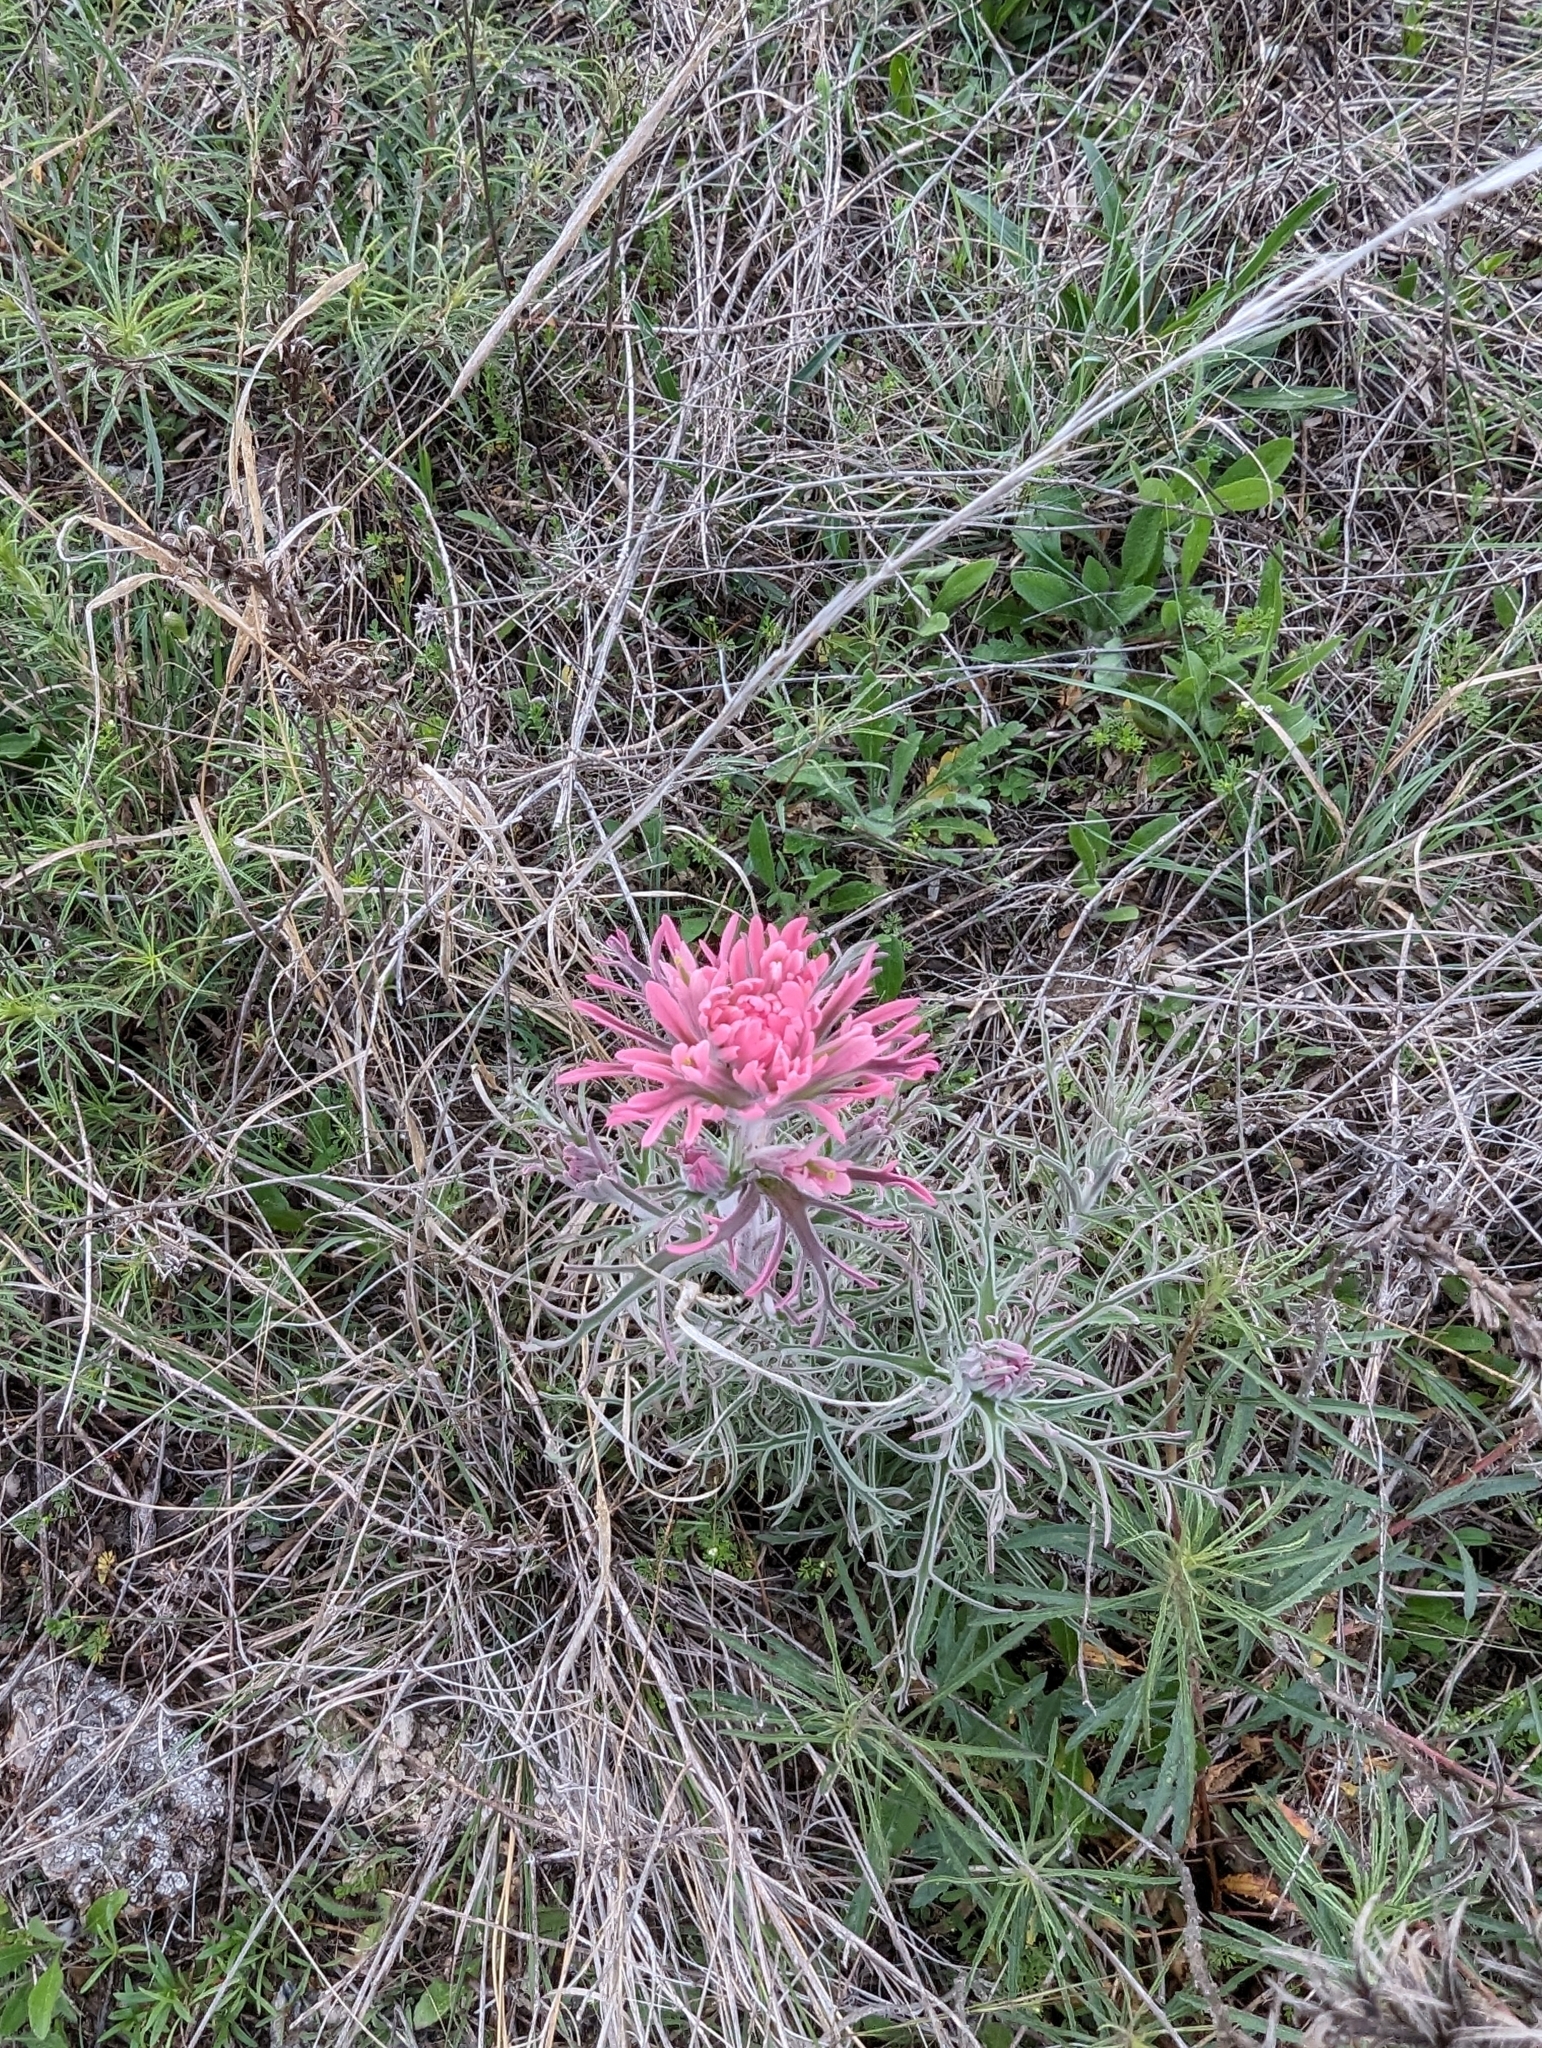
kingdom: Plantae
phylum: Tracheophyta
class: Magnoliopsida
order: Lamiales
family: Orobanchaceae
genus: Castilleja
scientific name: Castilleja purpurea
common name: Plains paintbrush
